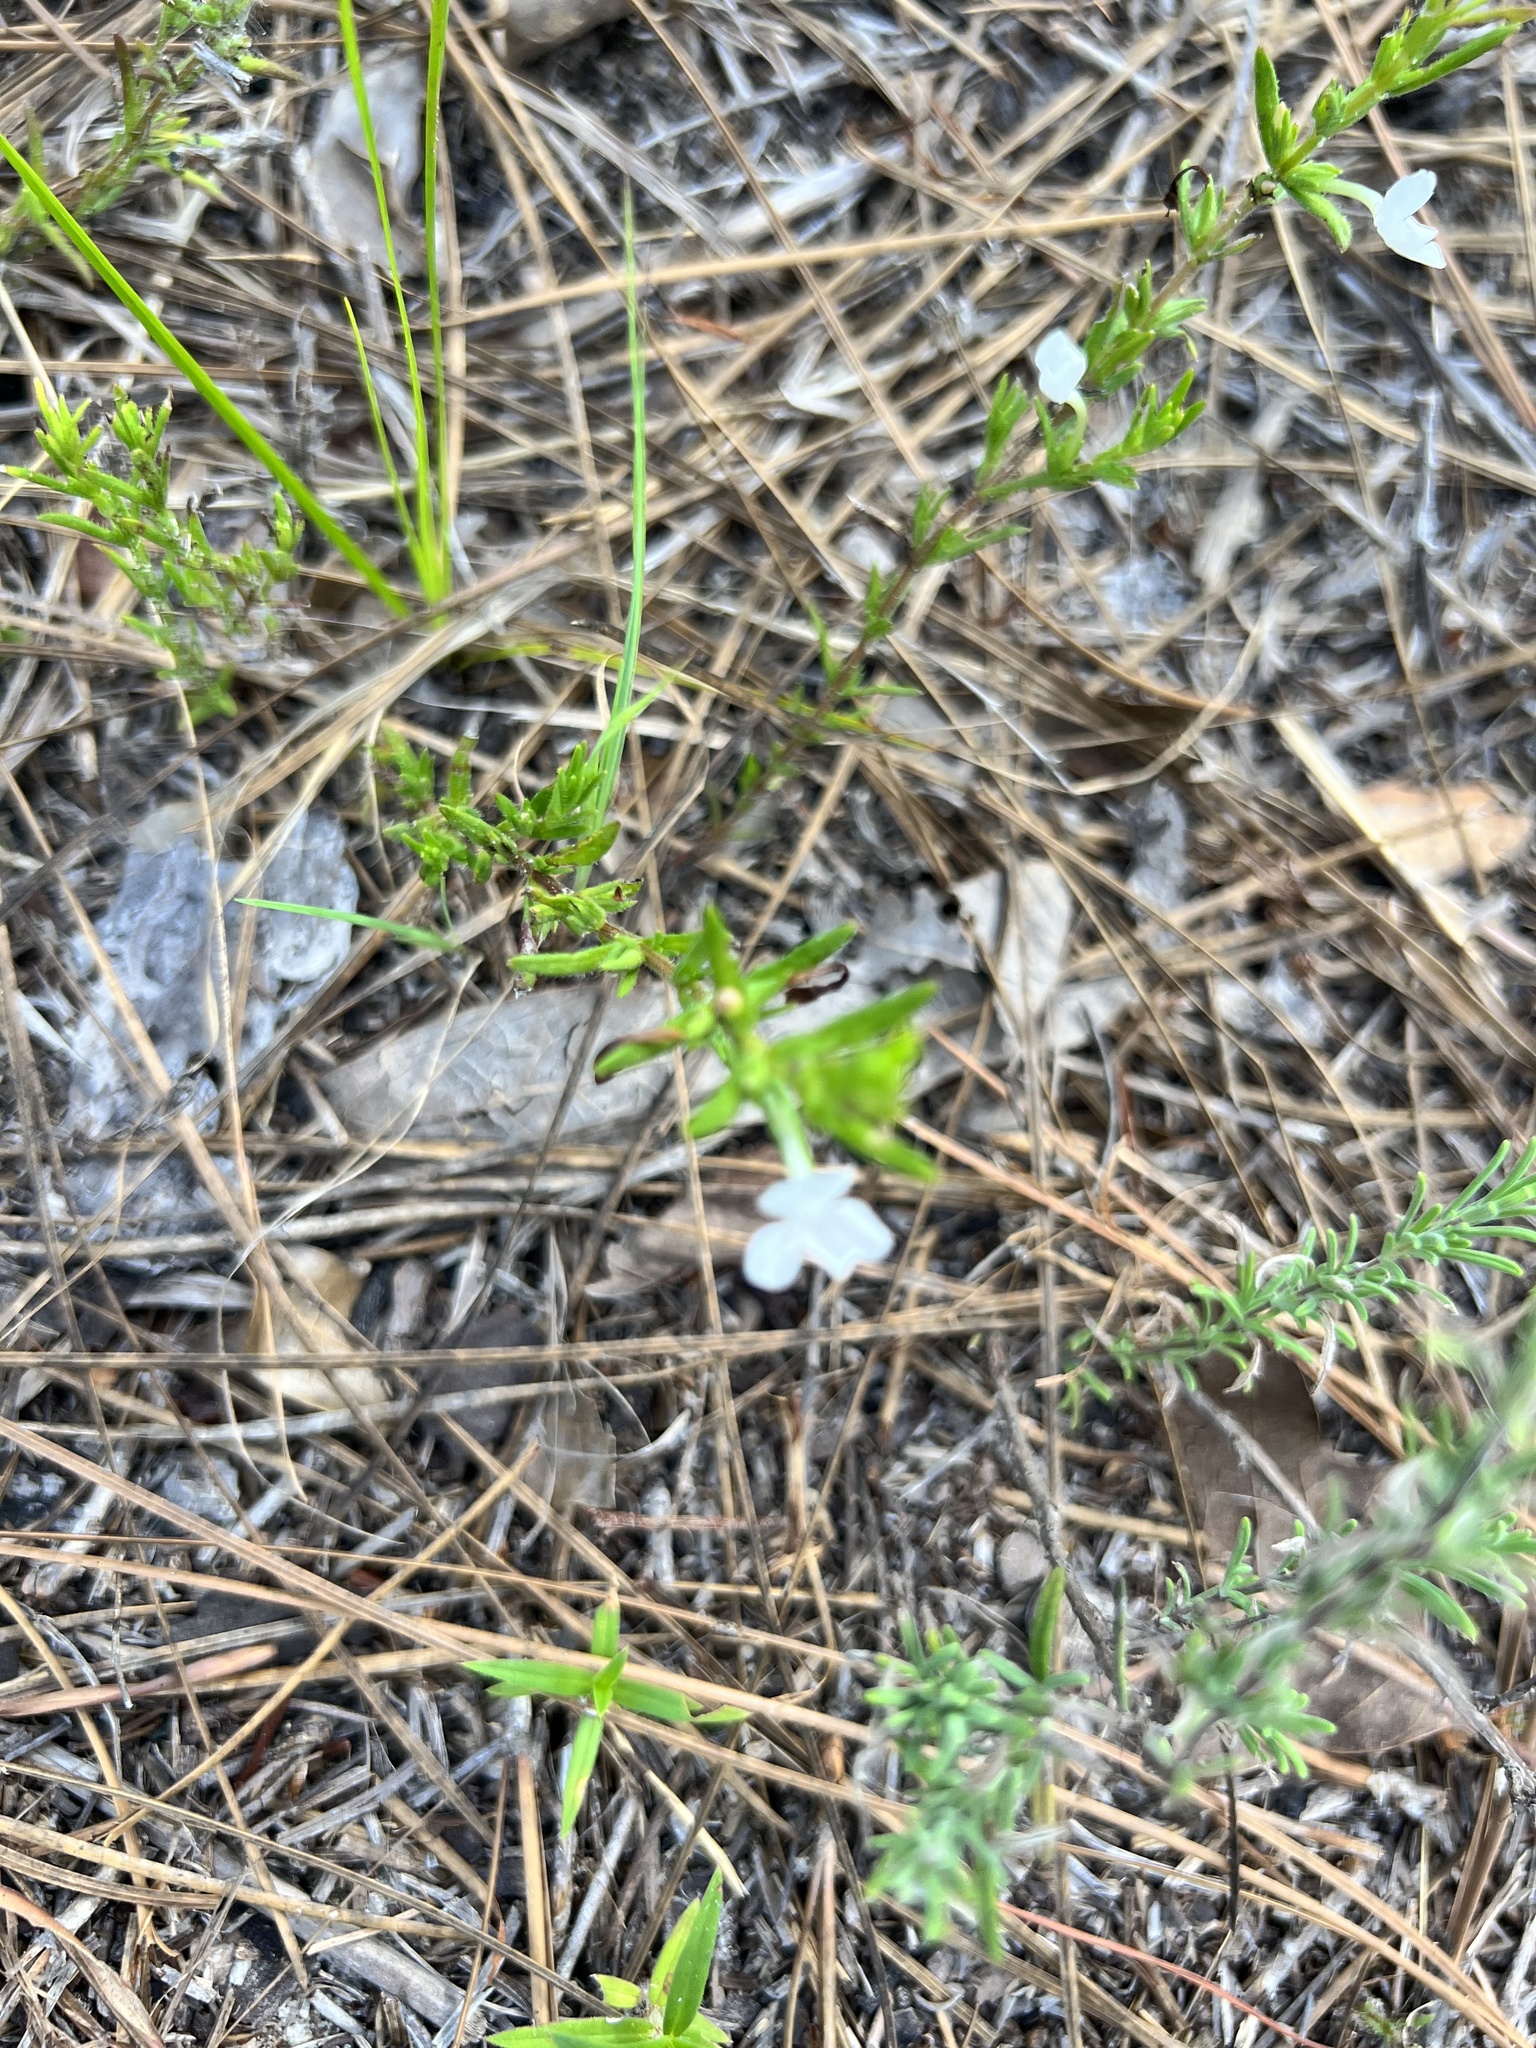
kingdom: Plantae
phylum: Tracheophyta
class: Magnoliopsida
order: Lamiales
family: Plantaginaceae
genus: Gratiola
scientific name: Gratiola hispida
